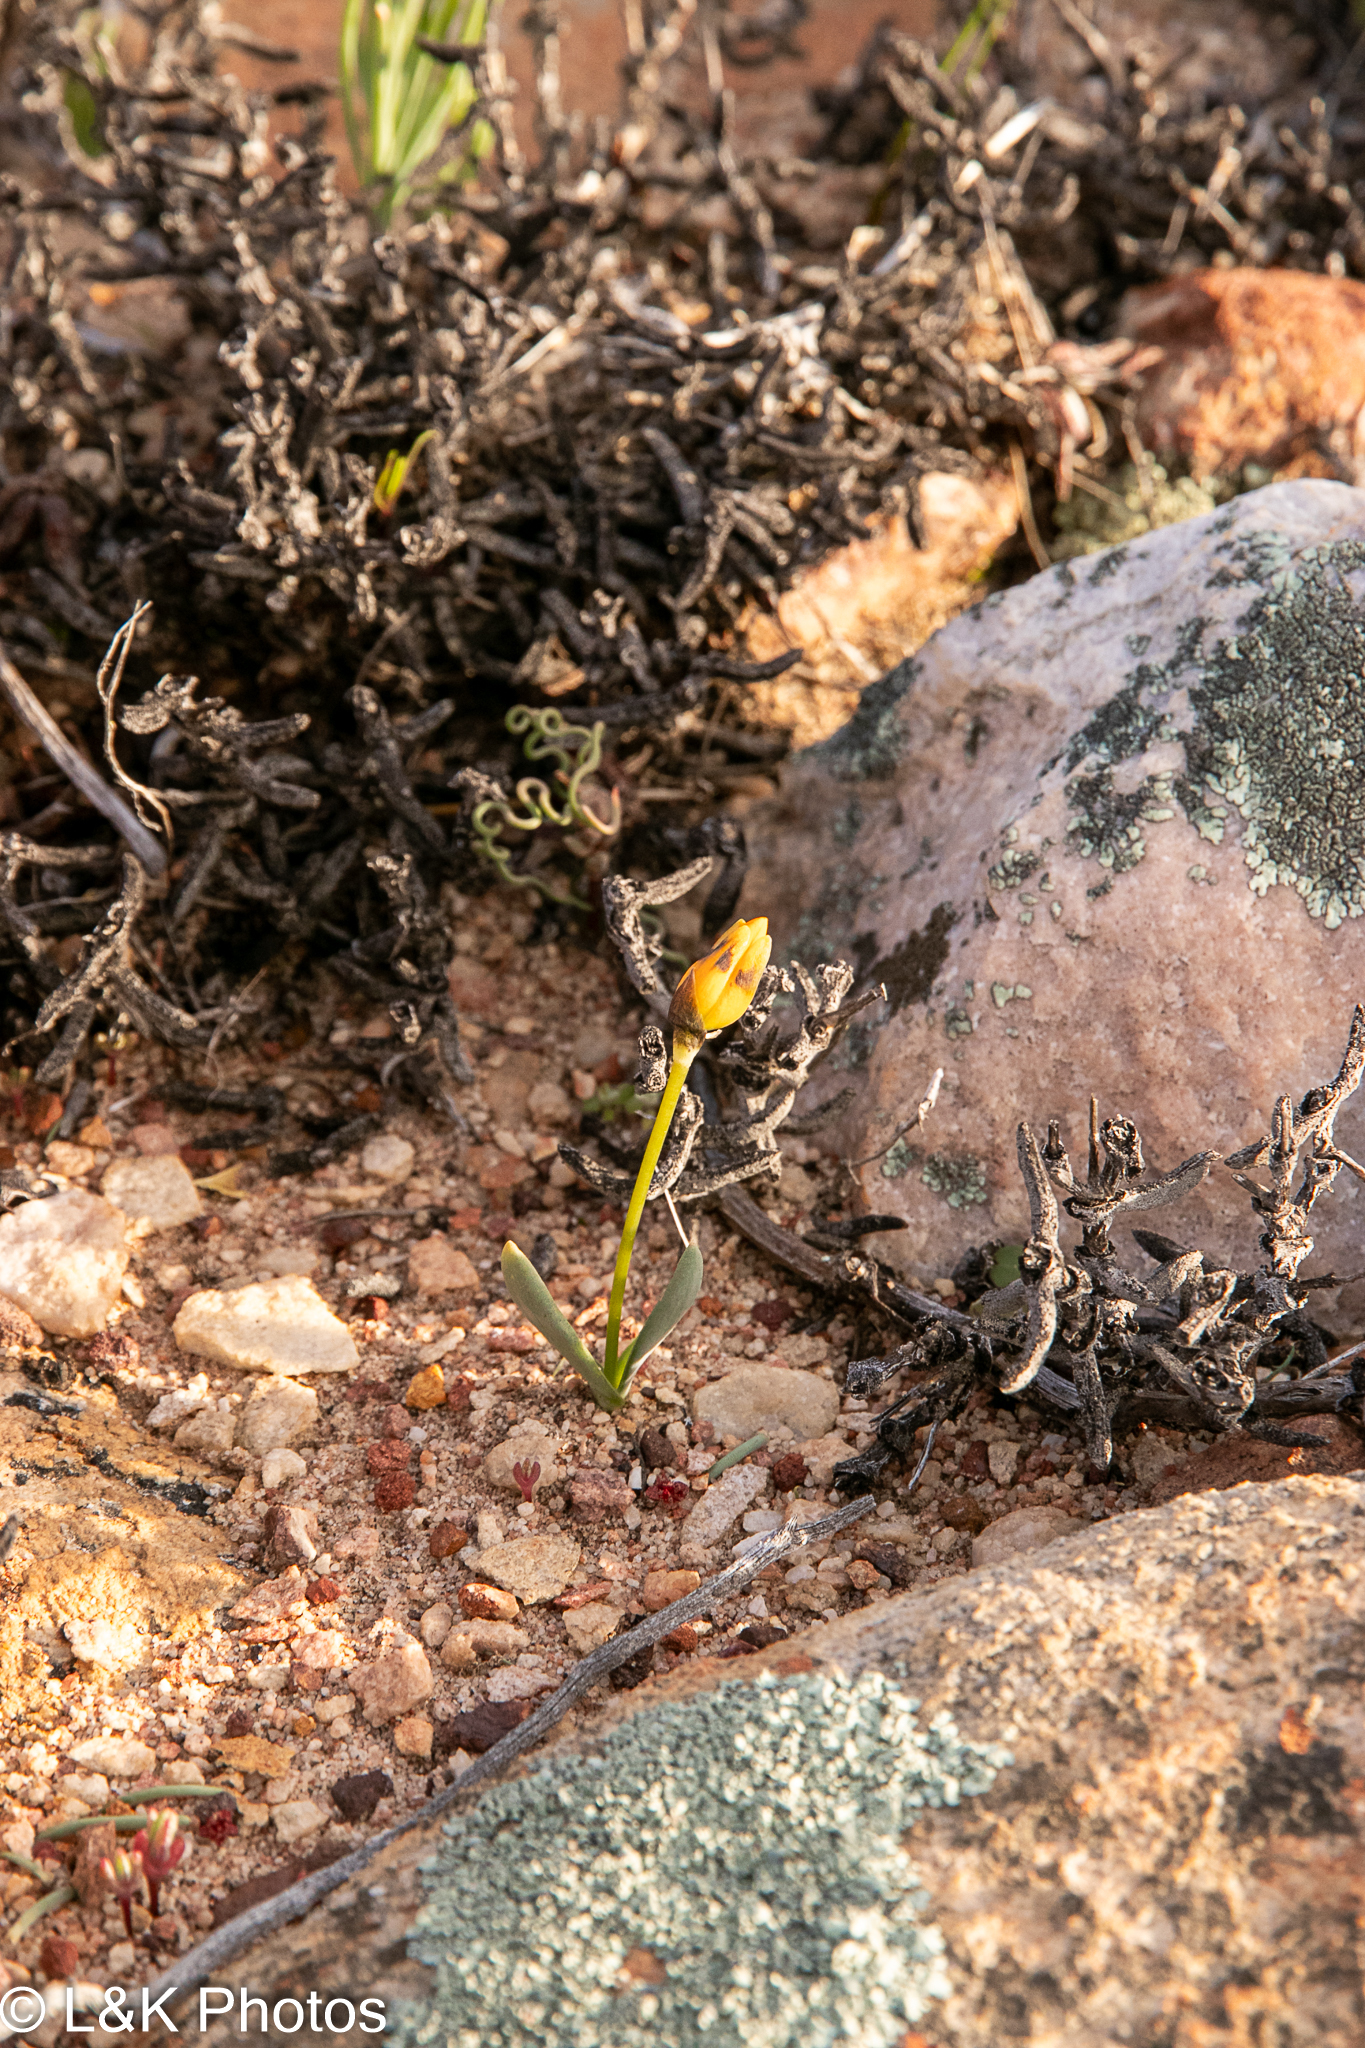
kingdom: Plantae
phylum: Tracheophyta
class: Liliopsida
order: Asparagales
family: Asparagaceae
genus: Ornithogalum
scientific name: Ornithogalum maculatum
